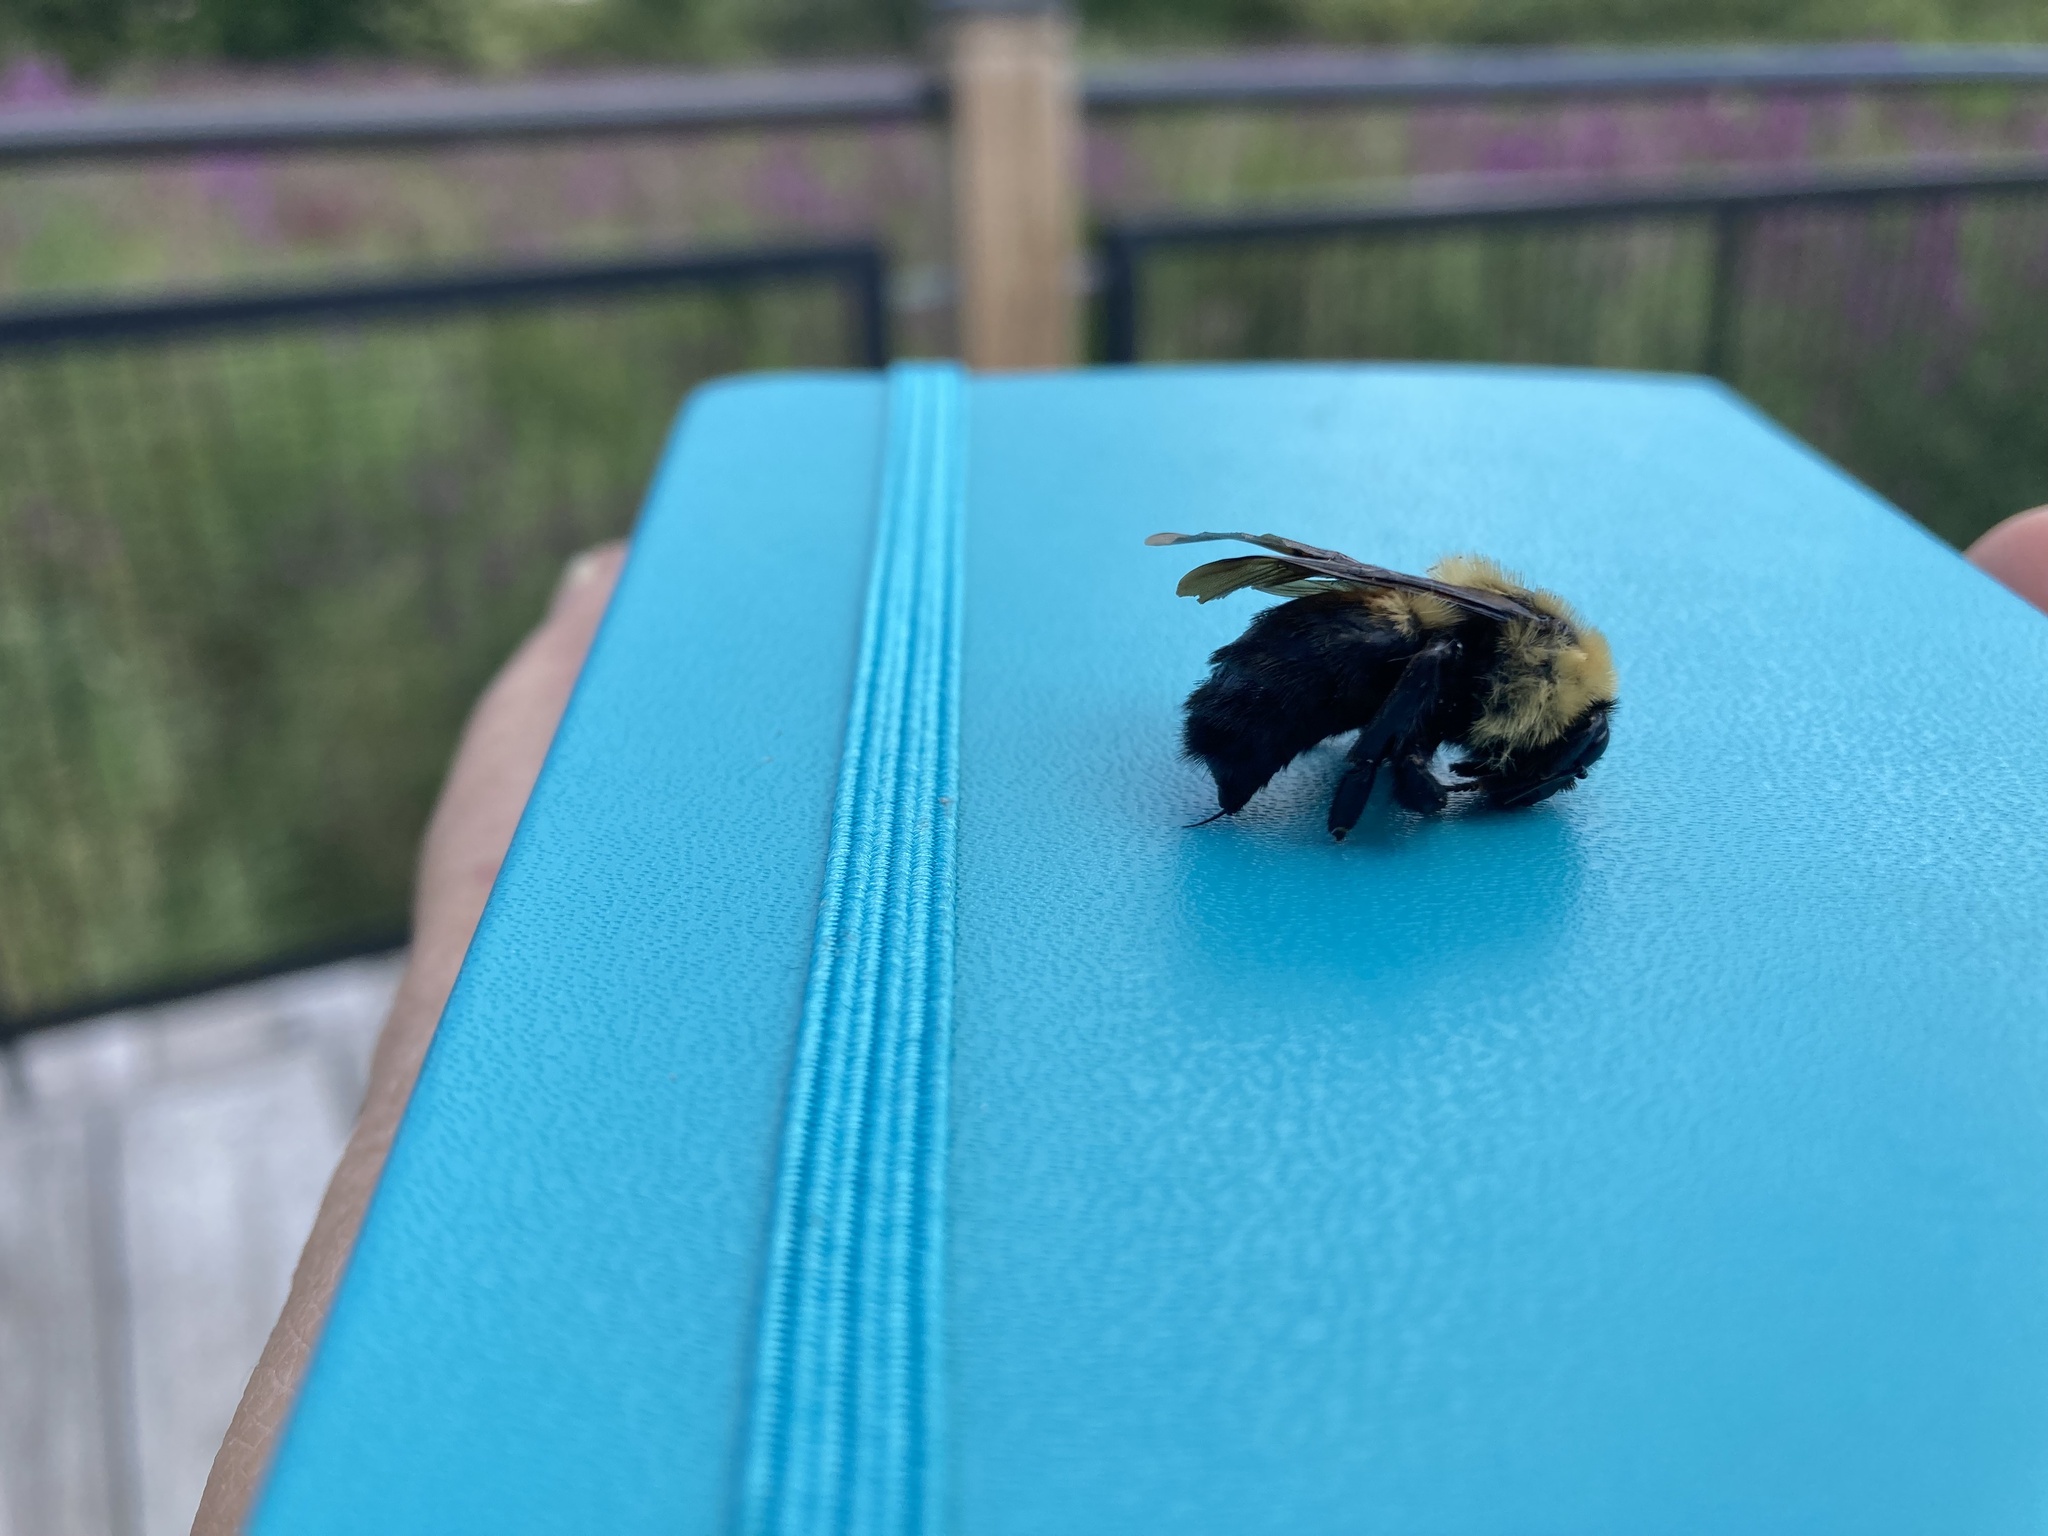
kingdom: Animalia
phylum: Arthropoda
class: Insecta
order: Hymenoptera
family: Apidae
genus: Bombus
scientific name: Bombus griseocollis
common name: Brown-belted bumble bee
